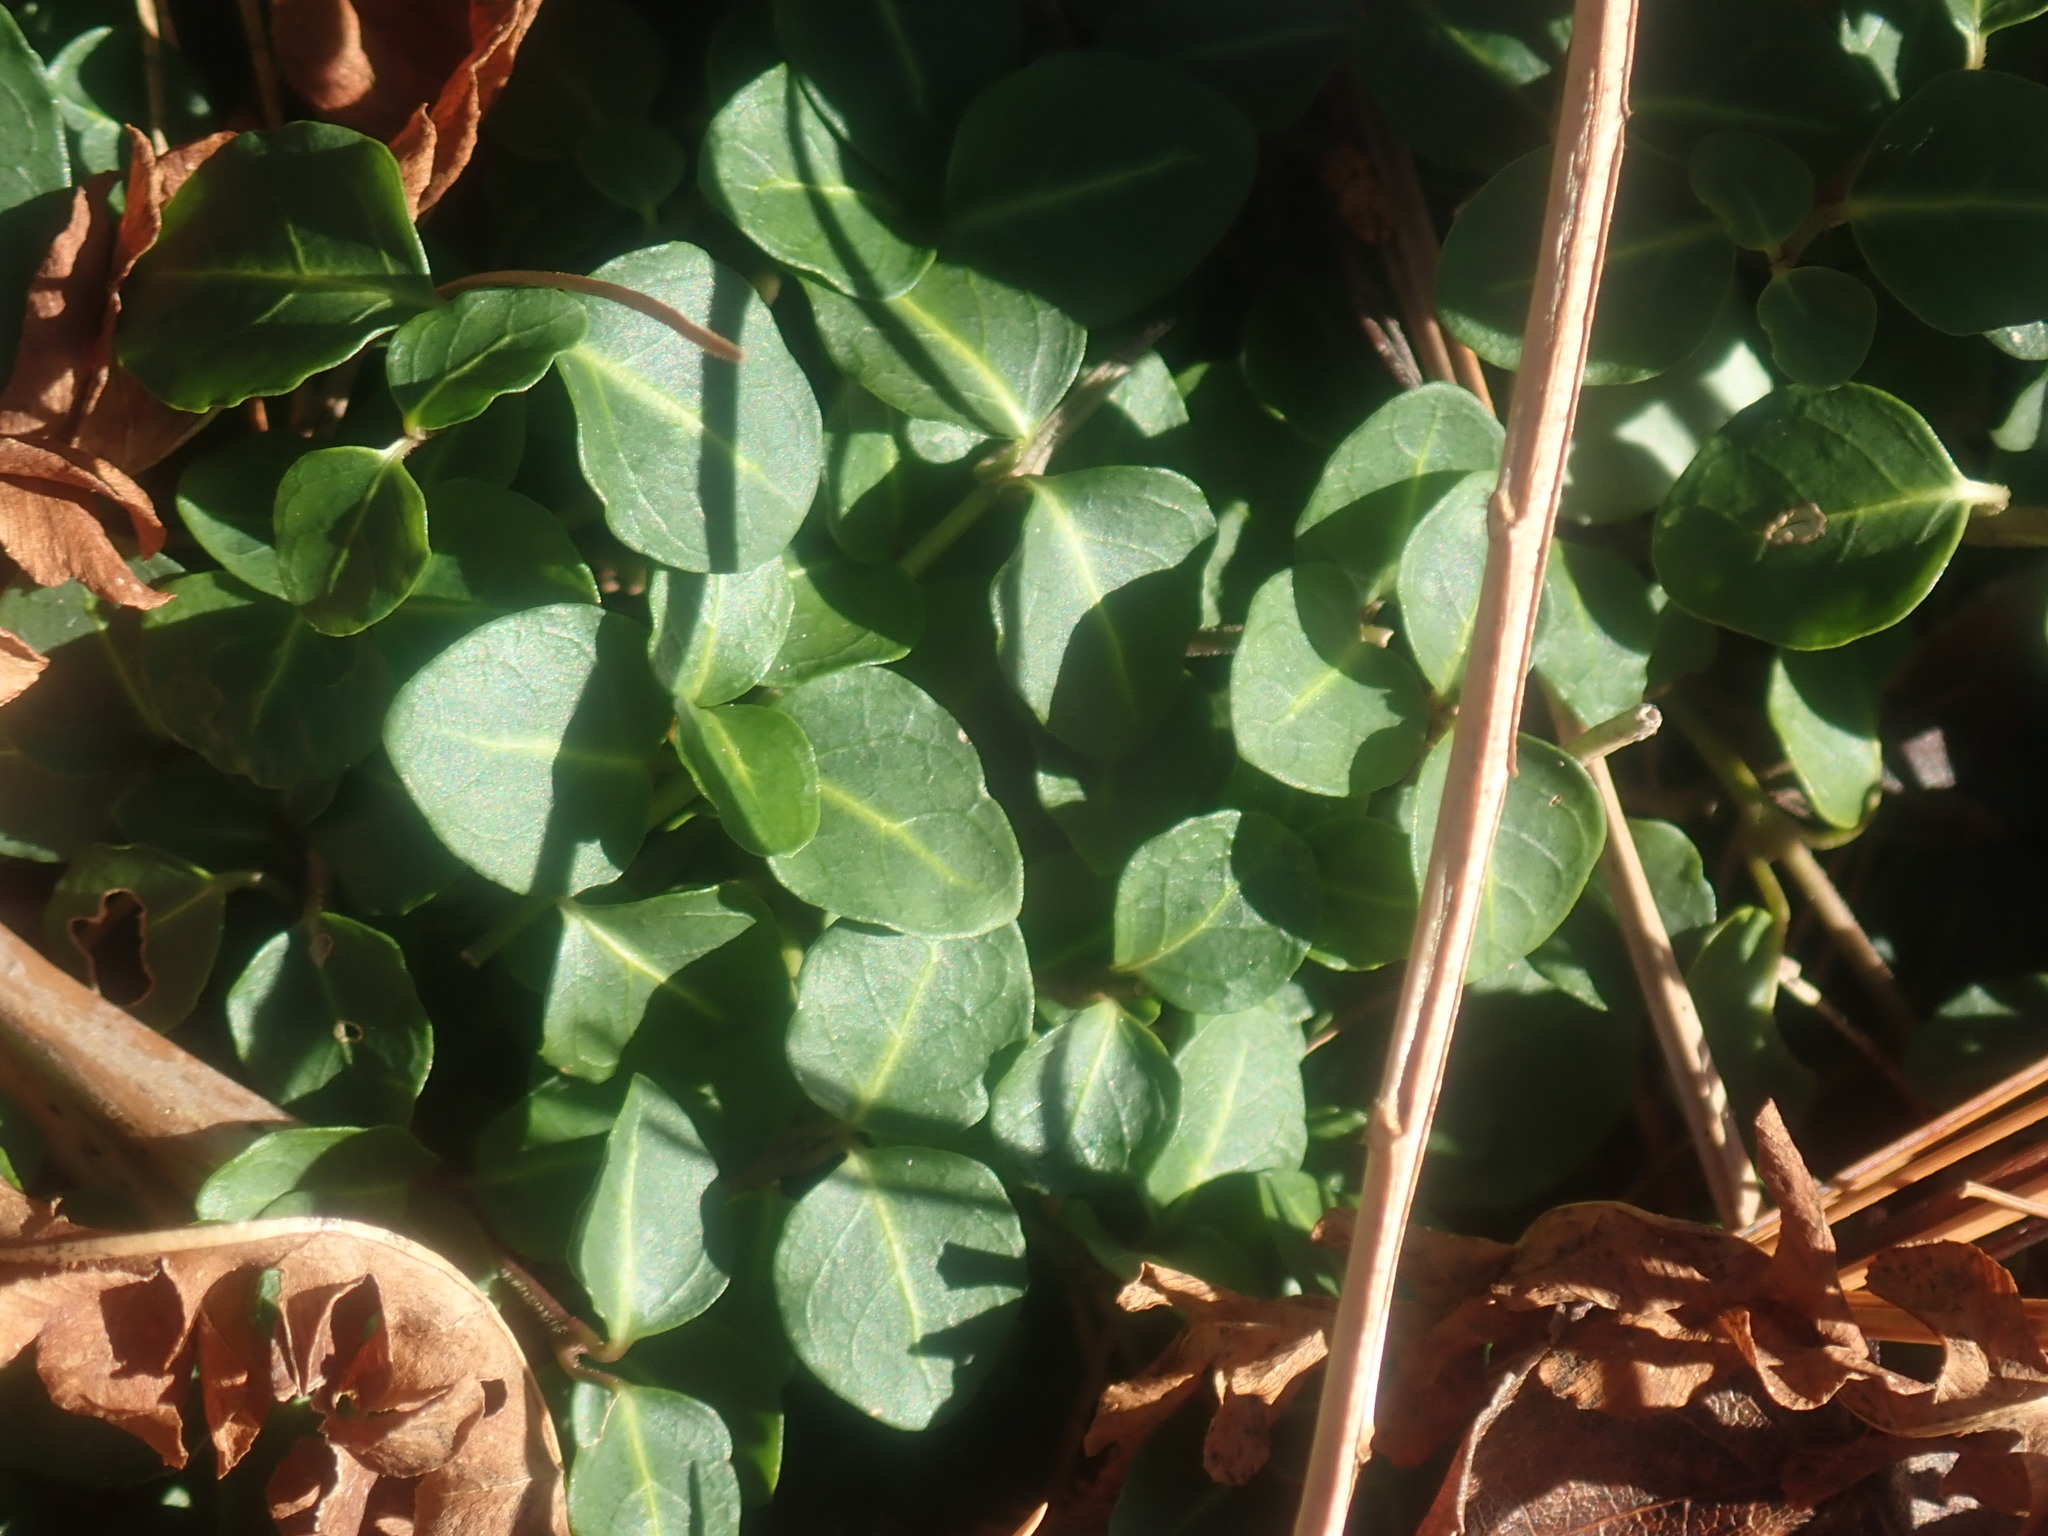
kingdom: Plantae
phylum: Tracheophyta
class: Magnoliopsida
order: Gentianales
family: Rubiaceae
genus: Mitchella
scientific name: Mitchella repens
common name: Partridge-berry
